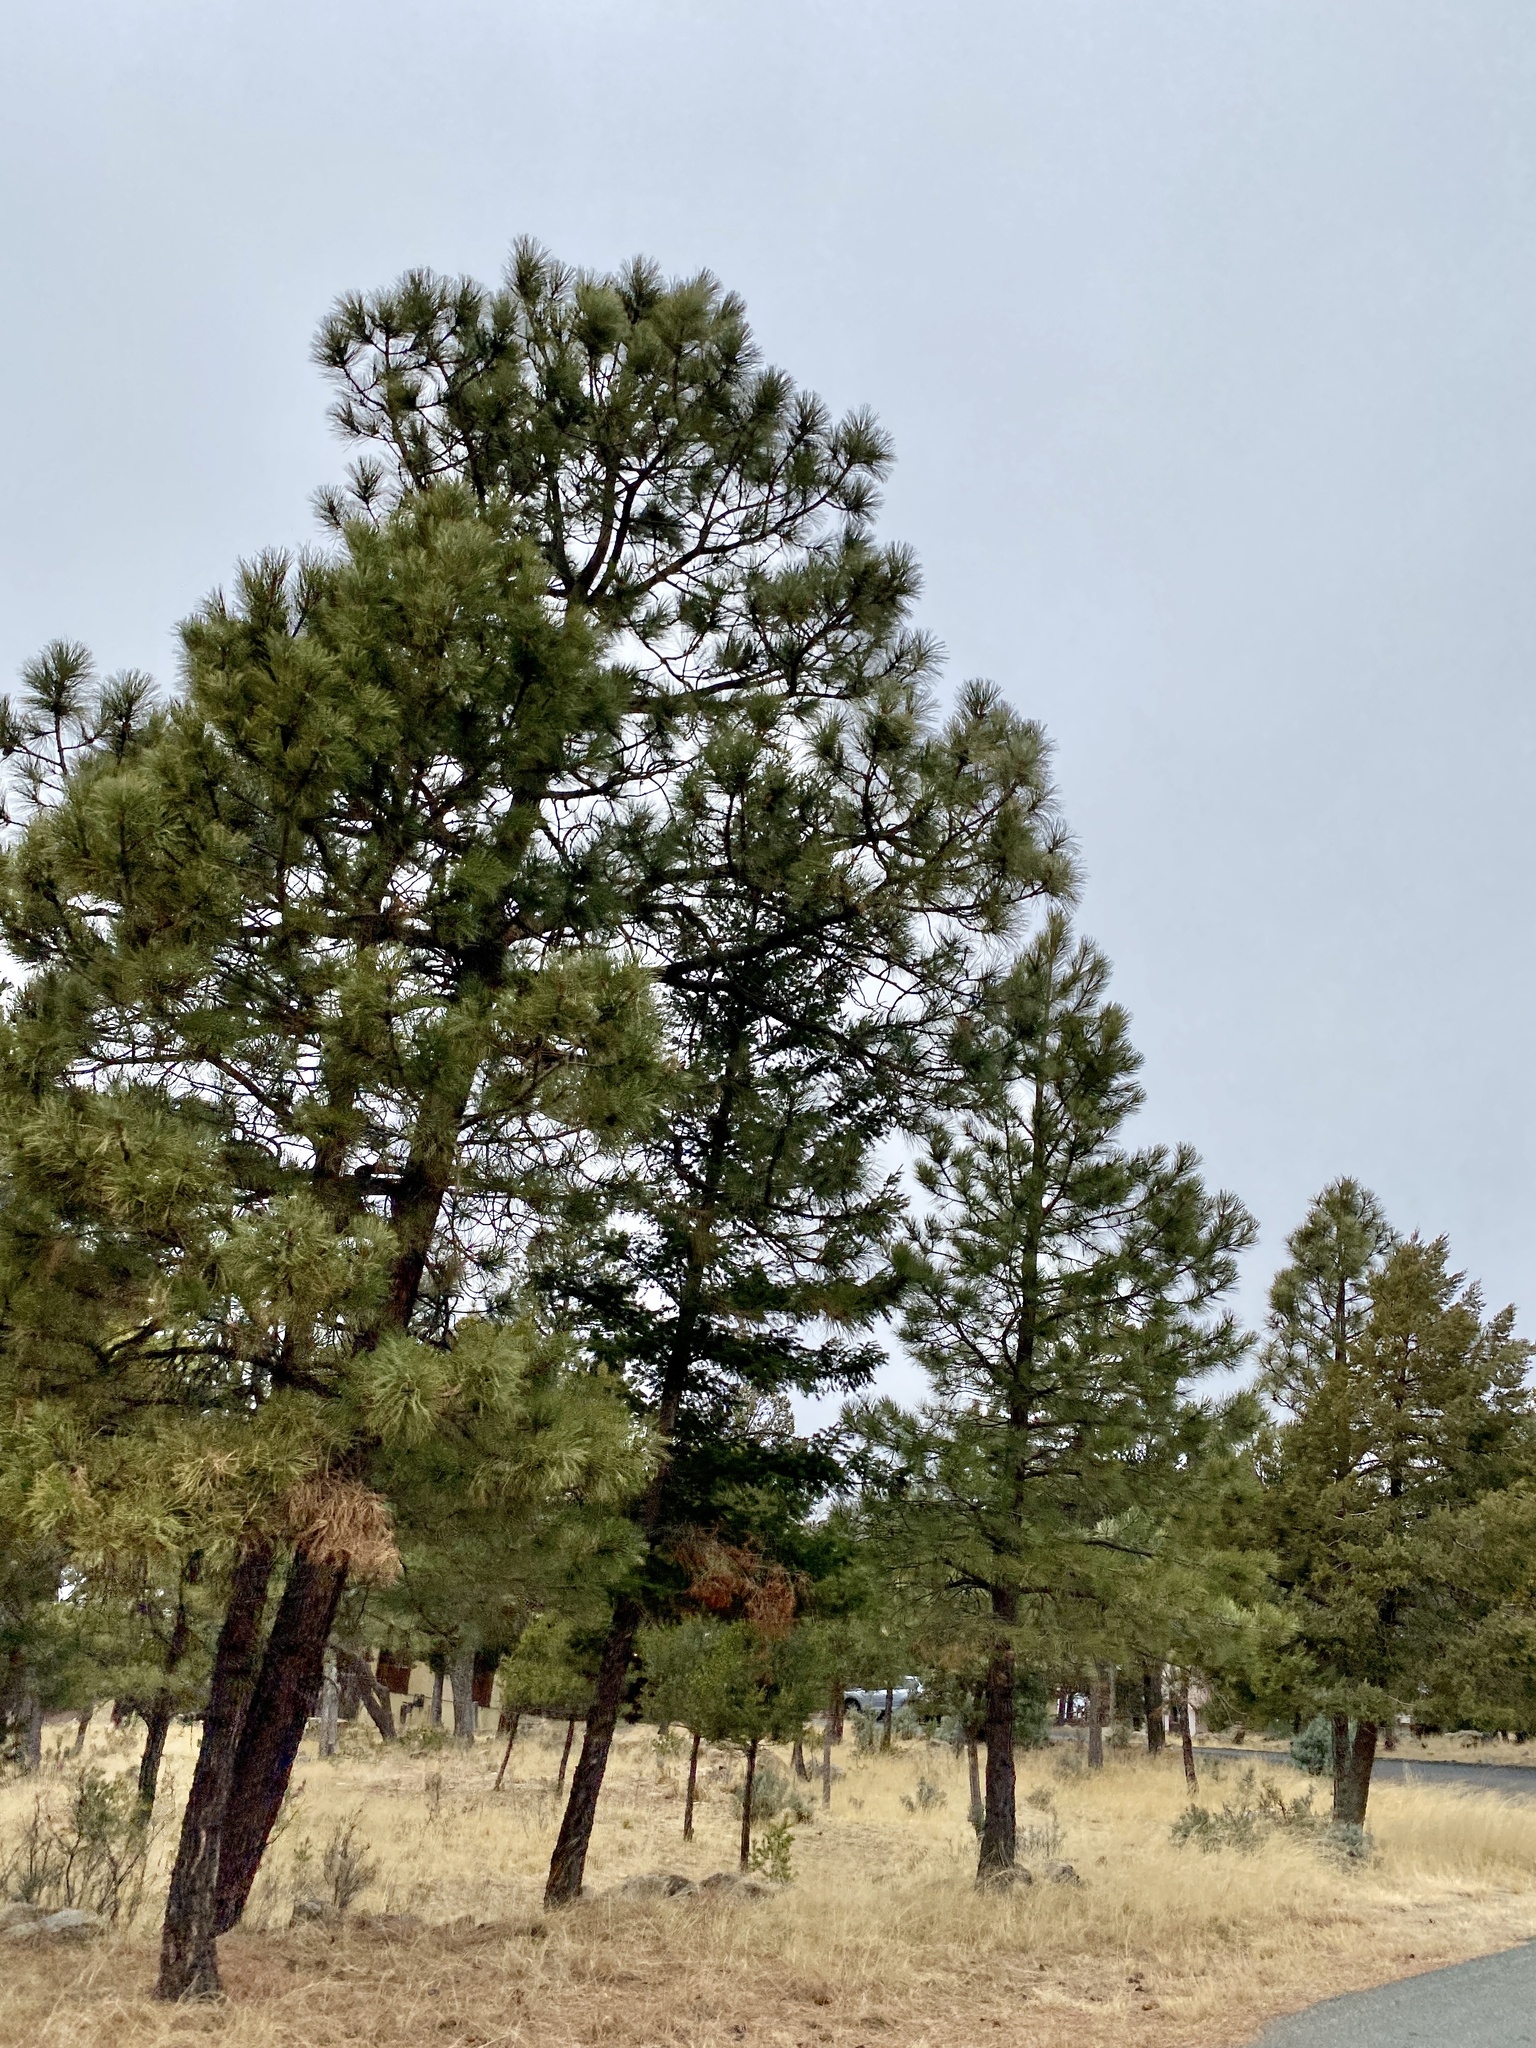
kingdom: Plantae
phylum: Tracheophyta
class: Pinopsida
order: Pinales
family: Pinaceae
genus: Pinus
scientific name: Pinus ponderosa
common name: Western yellow-pine
